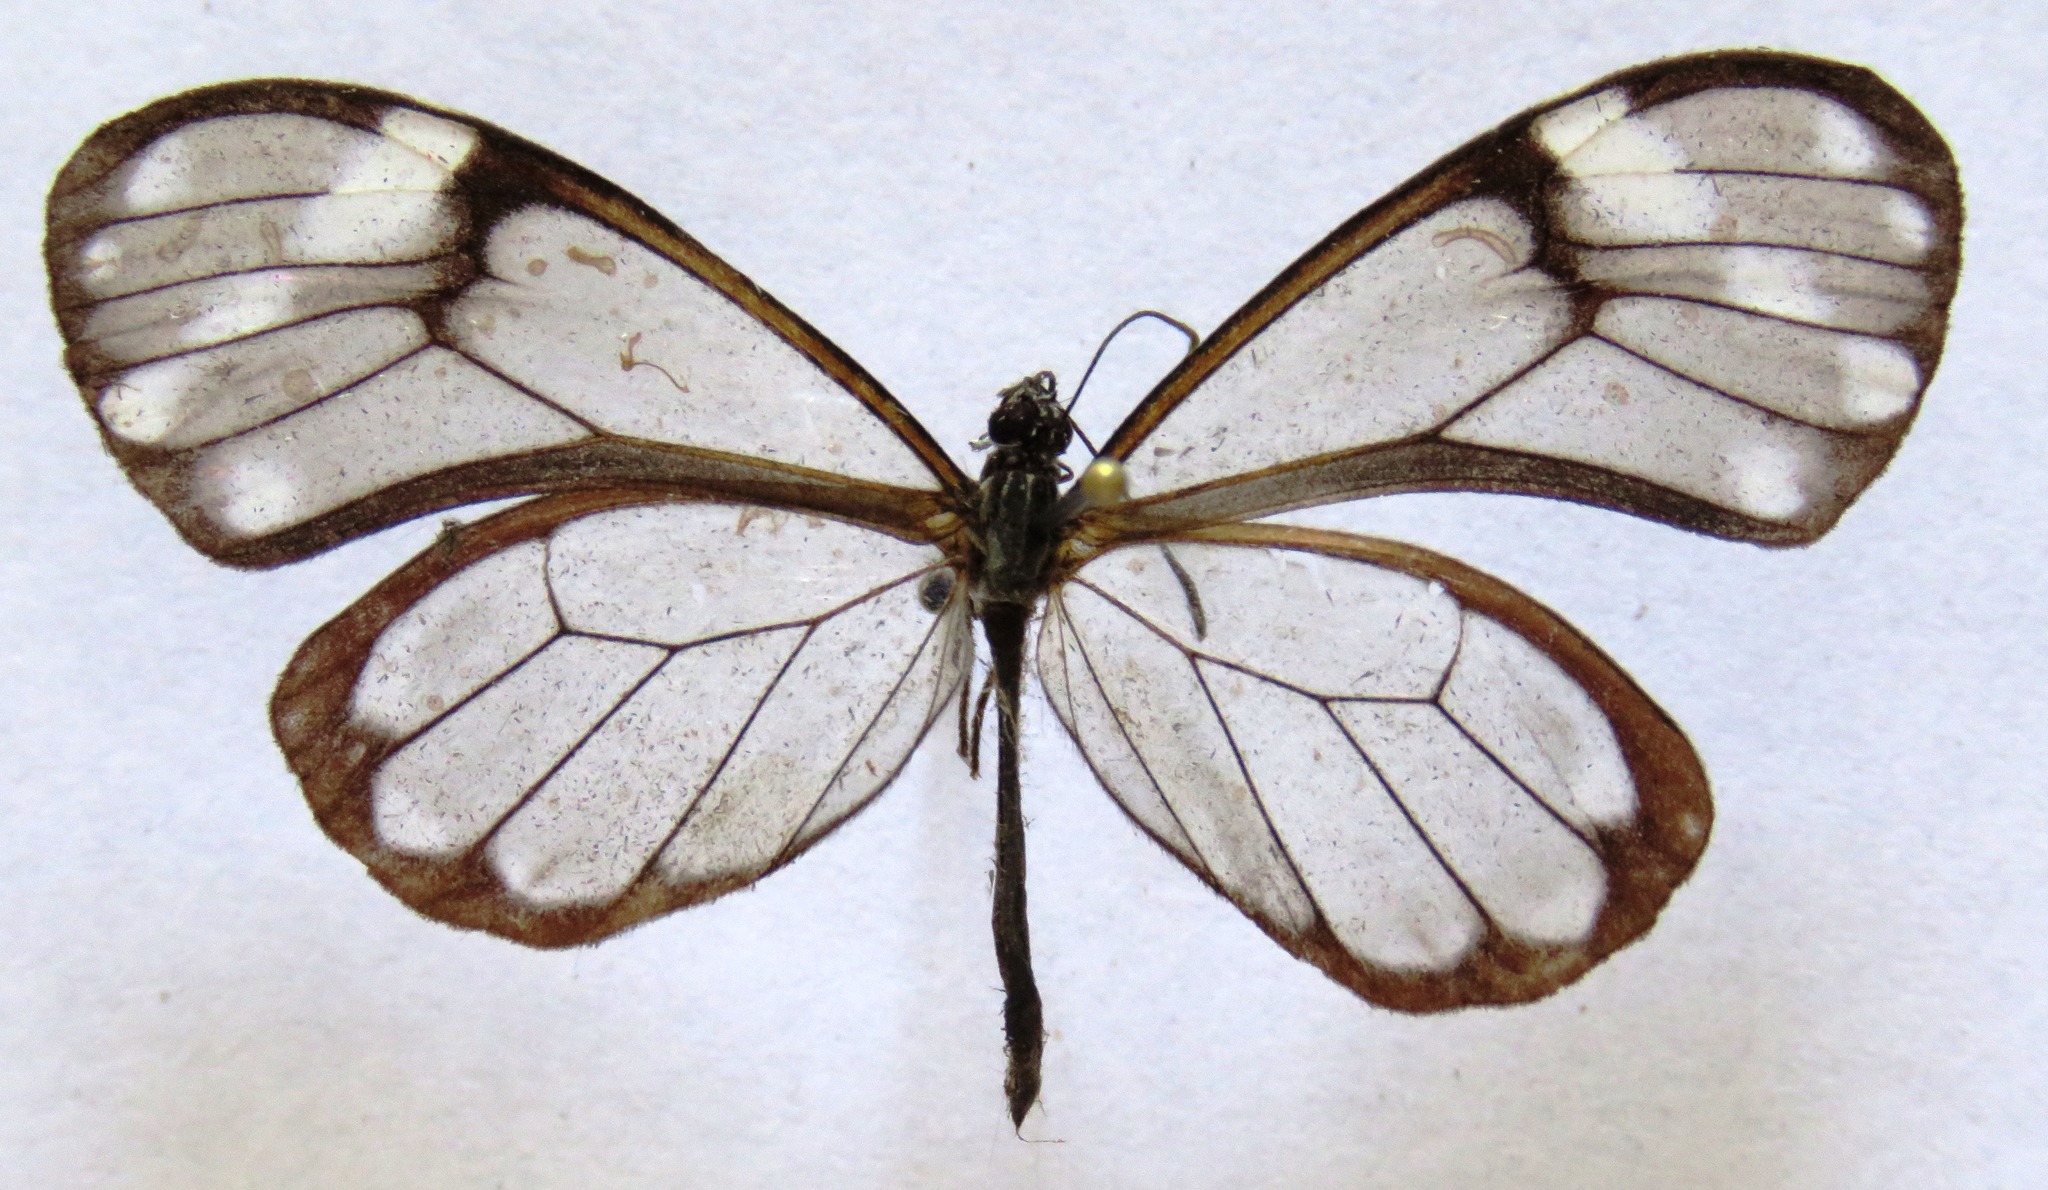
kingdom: Animalia
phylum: Arthropoda
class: Insecta
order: Lepidoptera
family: Nymphalidae
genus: Godyris
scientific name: Godyris nero
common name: Nero clearwing
